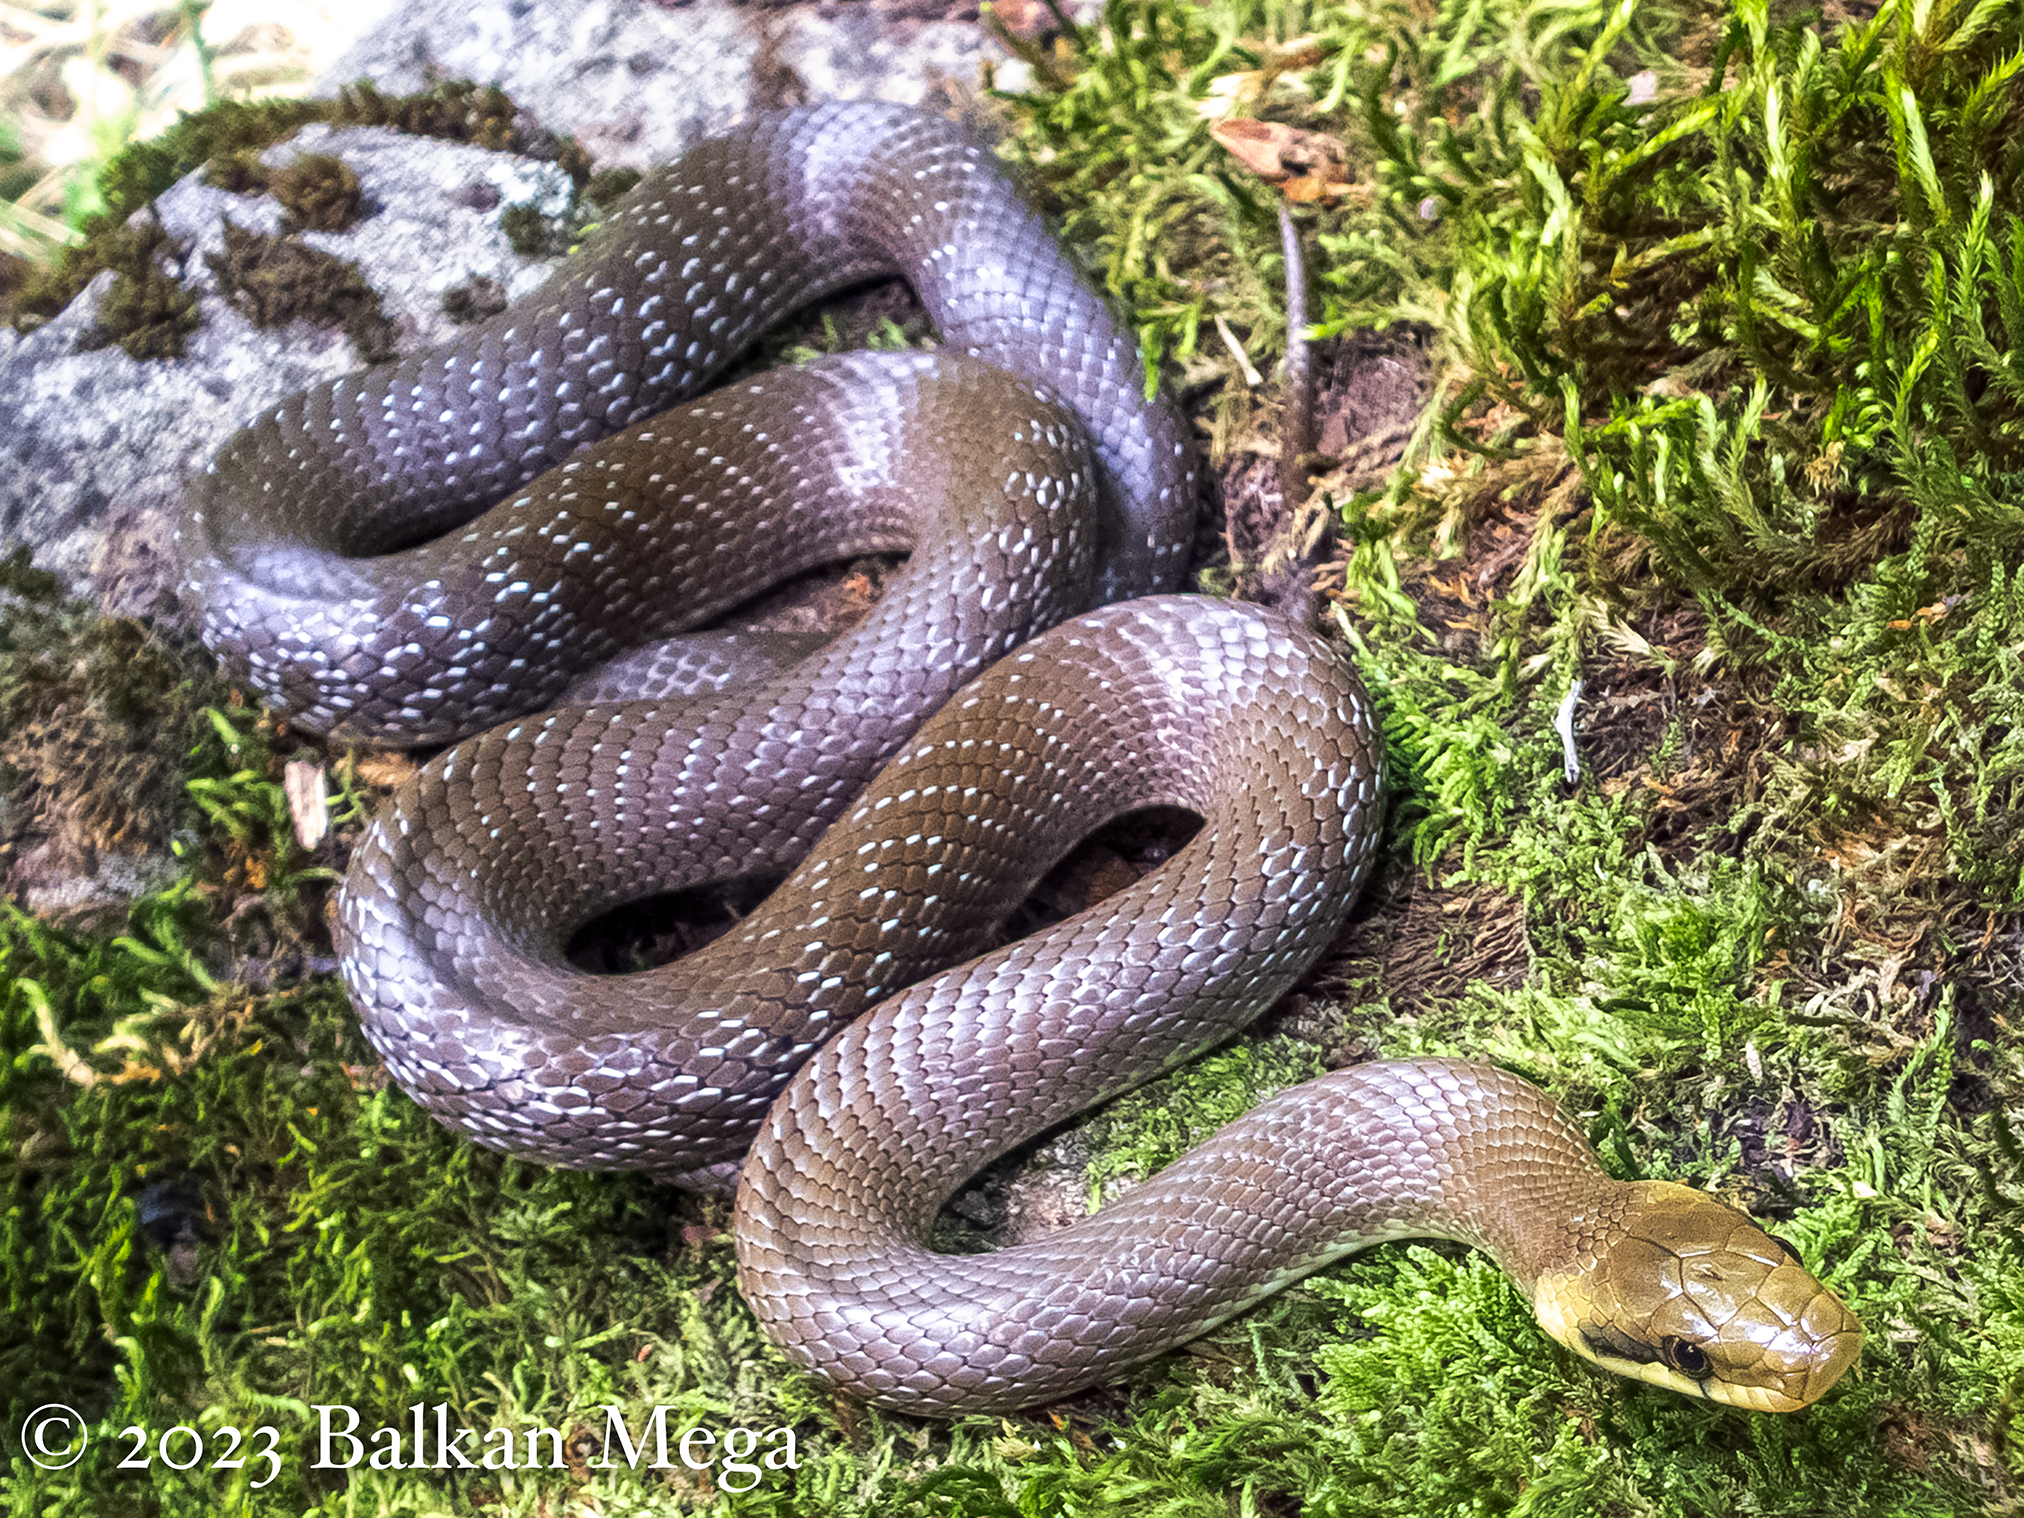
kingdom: Animalia
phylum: Chordata
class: Squamata
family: Colubridae
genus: Zamenis
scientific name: Zamenis longissimus
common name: Aesculapean snake
